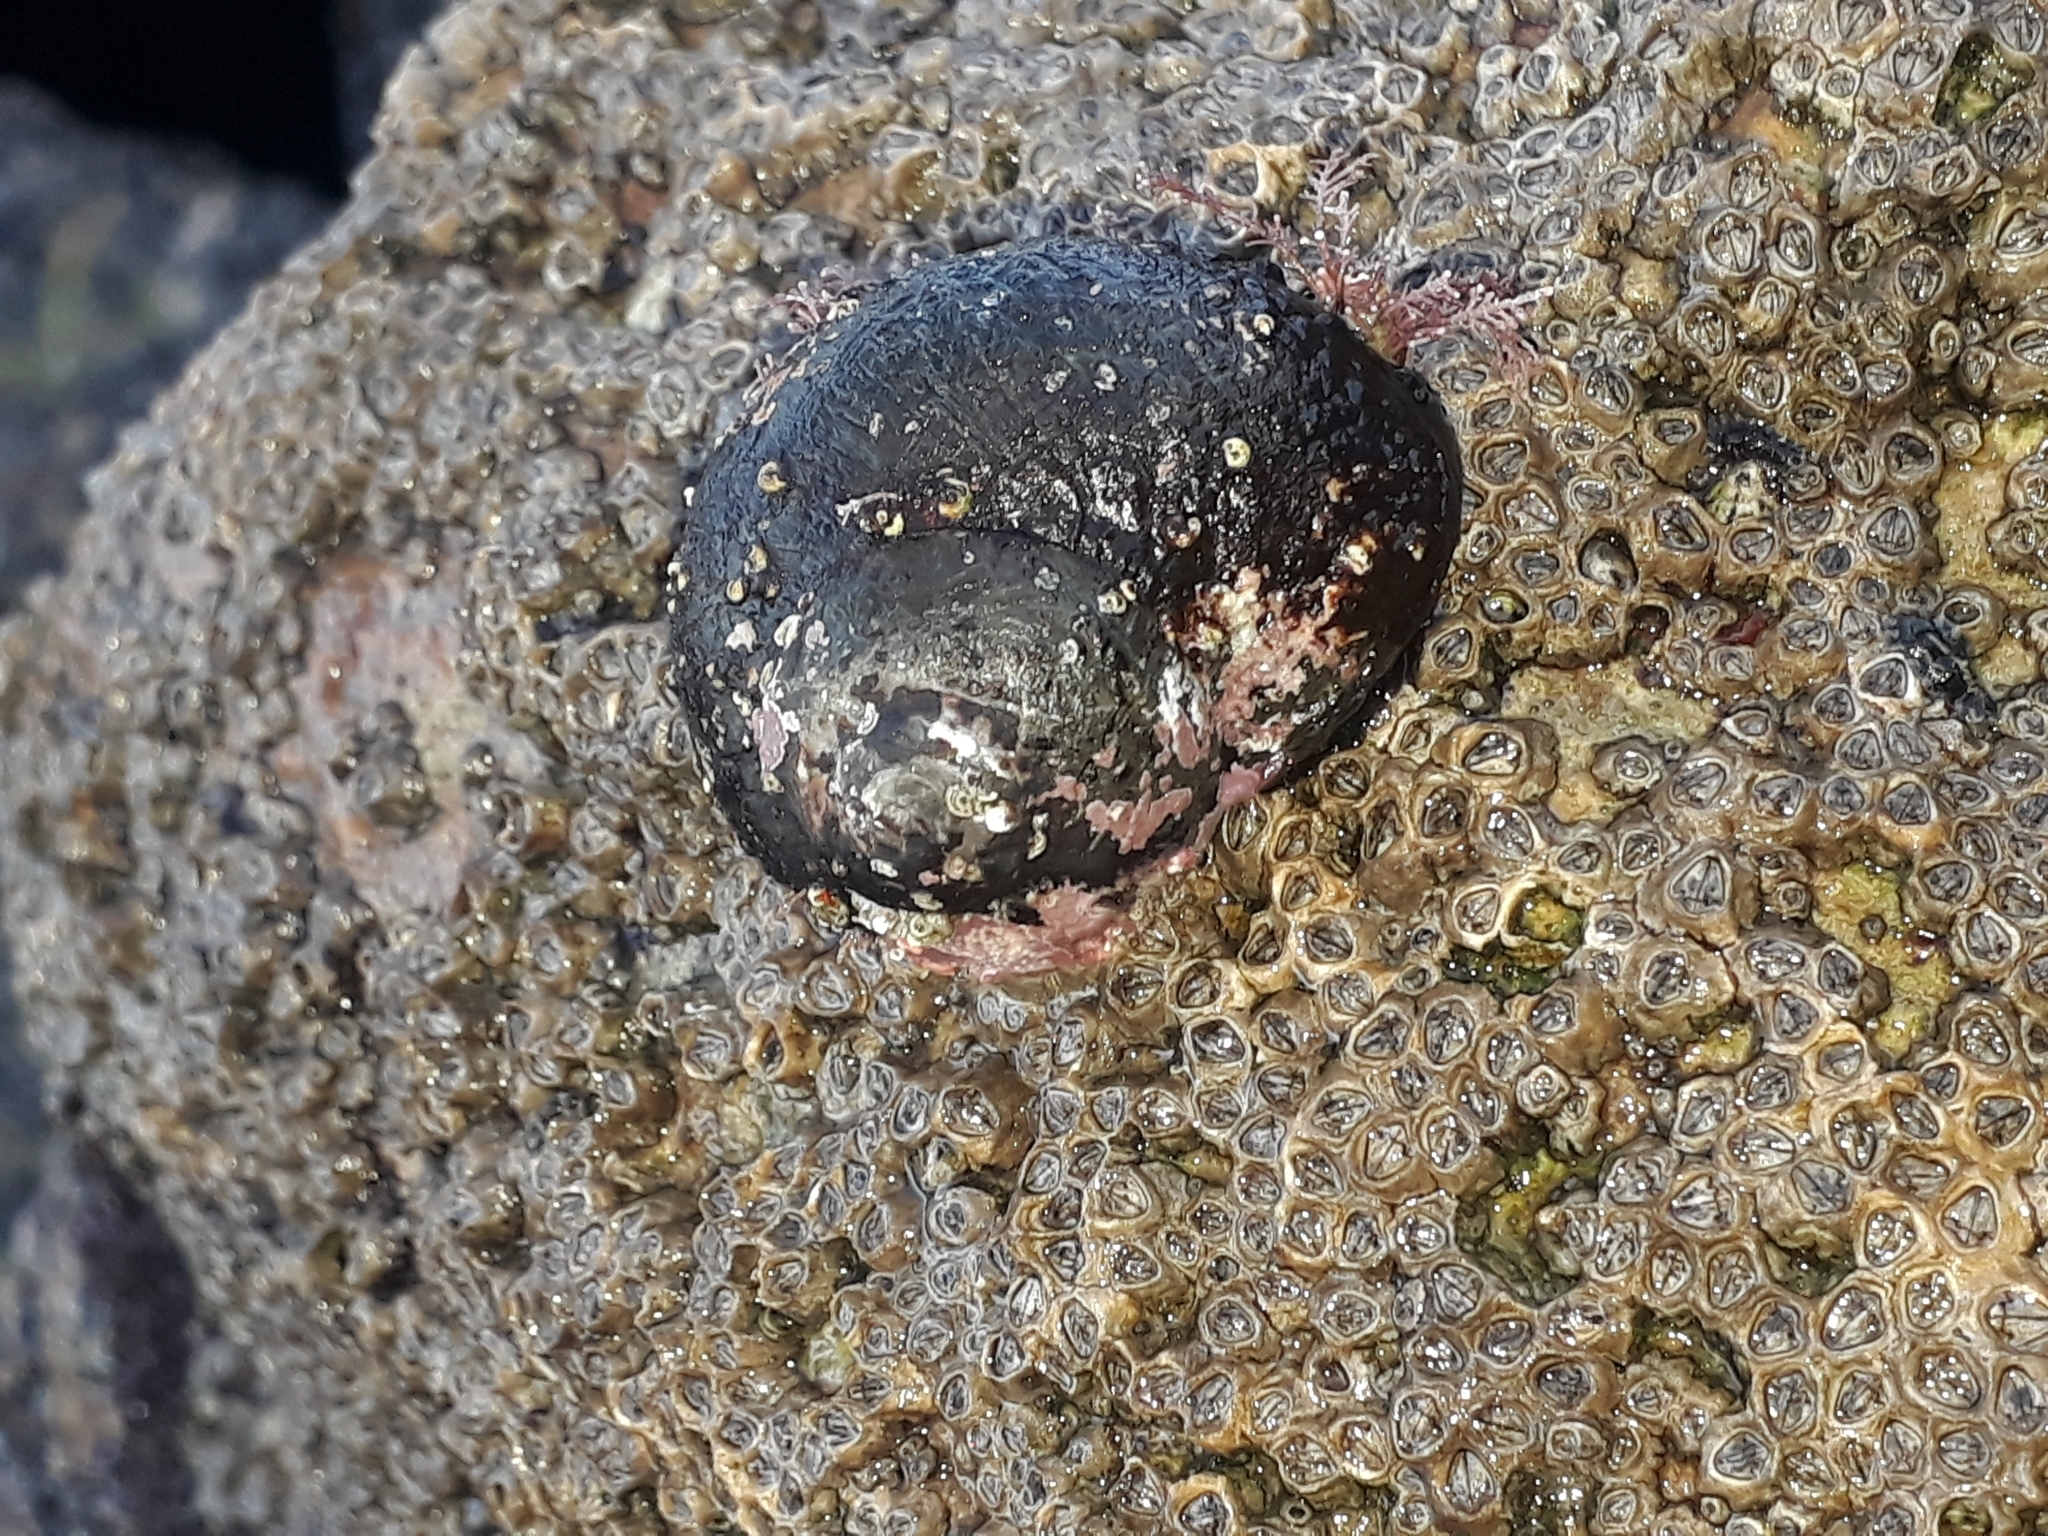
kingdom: Animalia
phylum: Mollusca
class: Gastropoda
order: Trochida
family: Turbinidae
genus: Lunella
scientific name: Lunella smaragda
